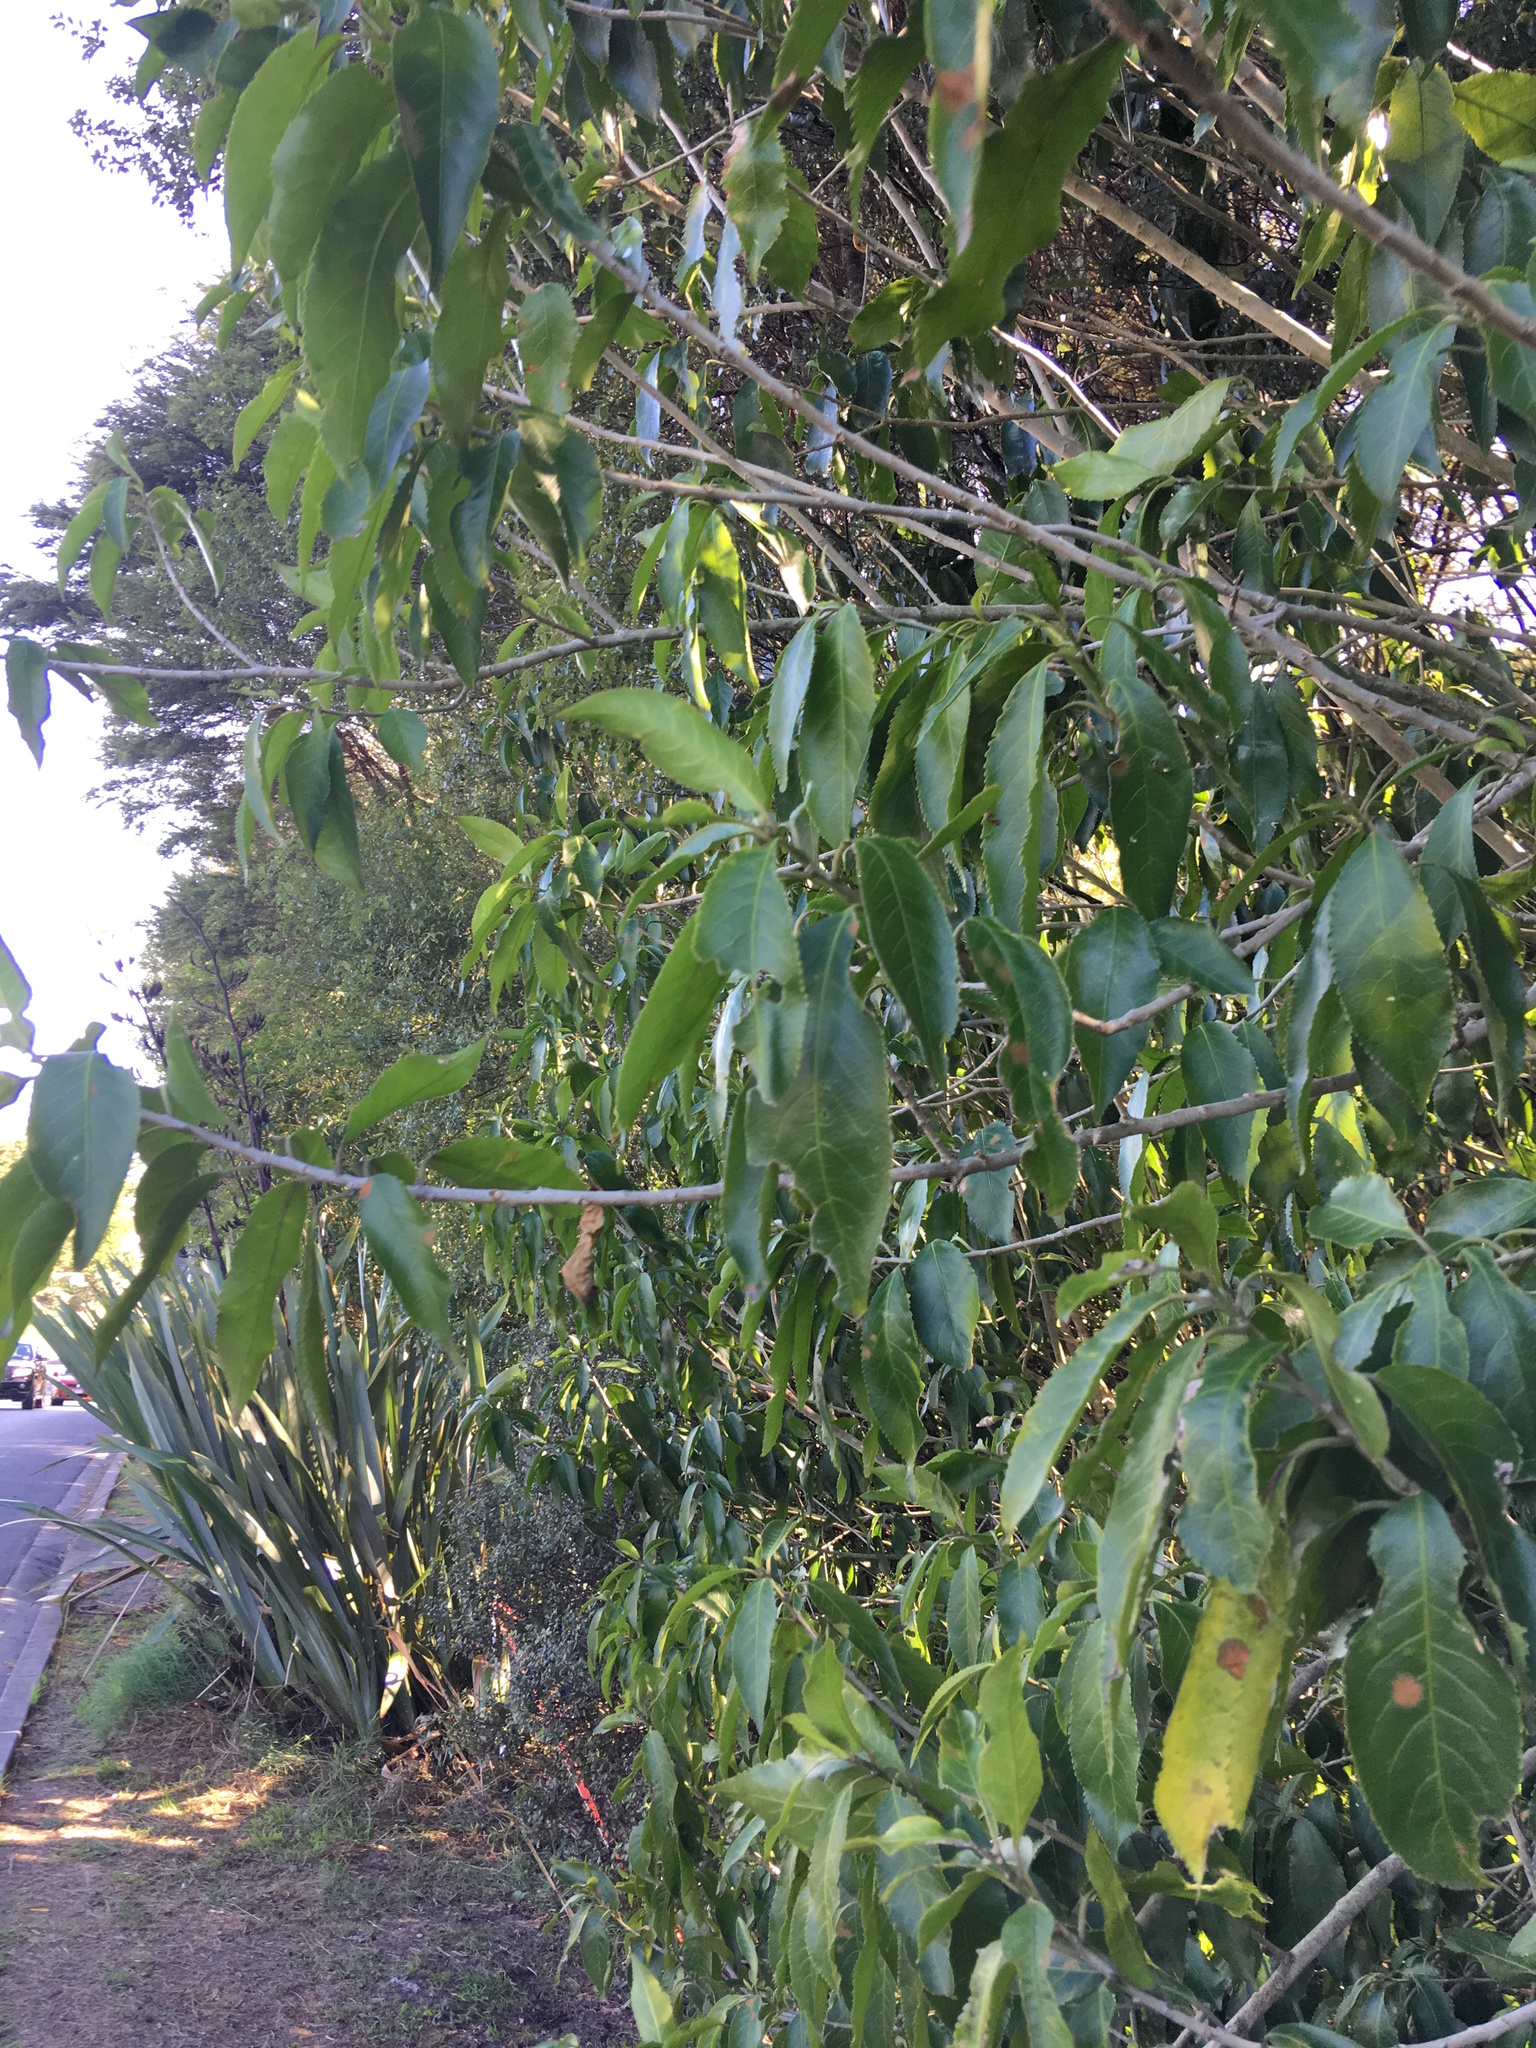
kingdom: Plantae
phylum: Tracheophyta
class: Magnoliopsida
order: Malpighiales
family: Violaceae
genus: Melicytus
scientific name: Melicytus ramiflorus
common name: Mahoe
